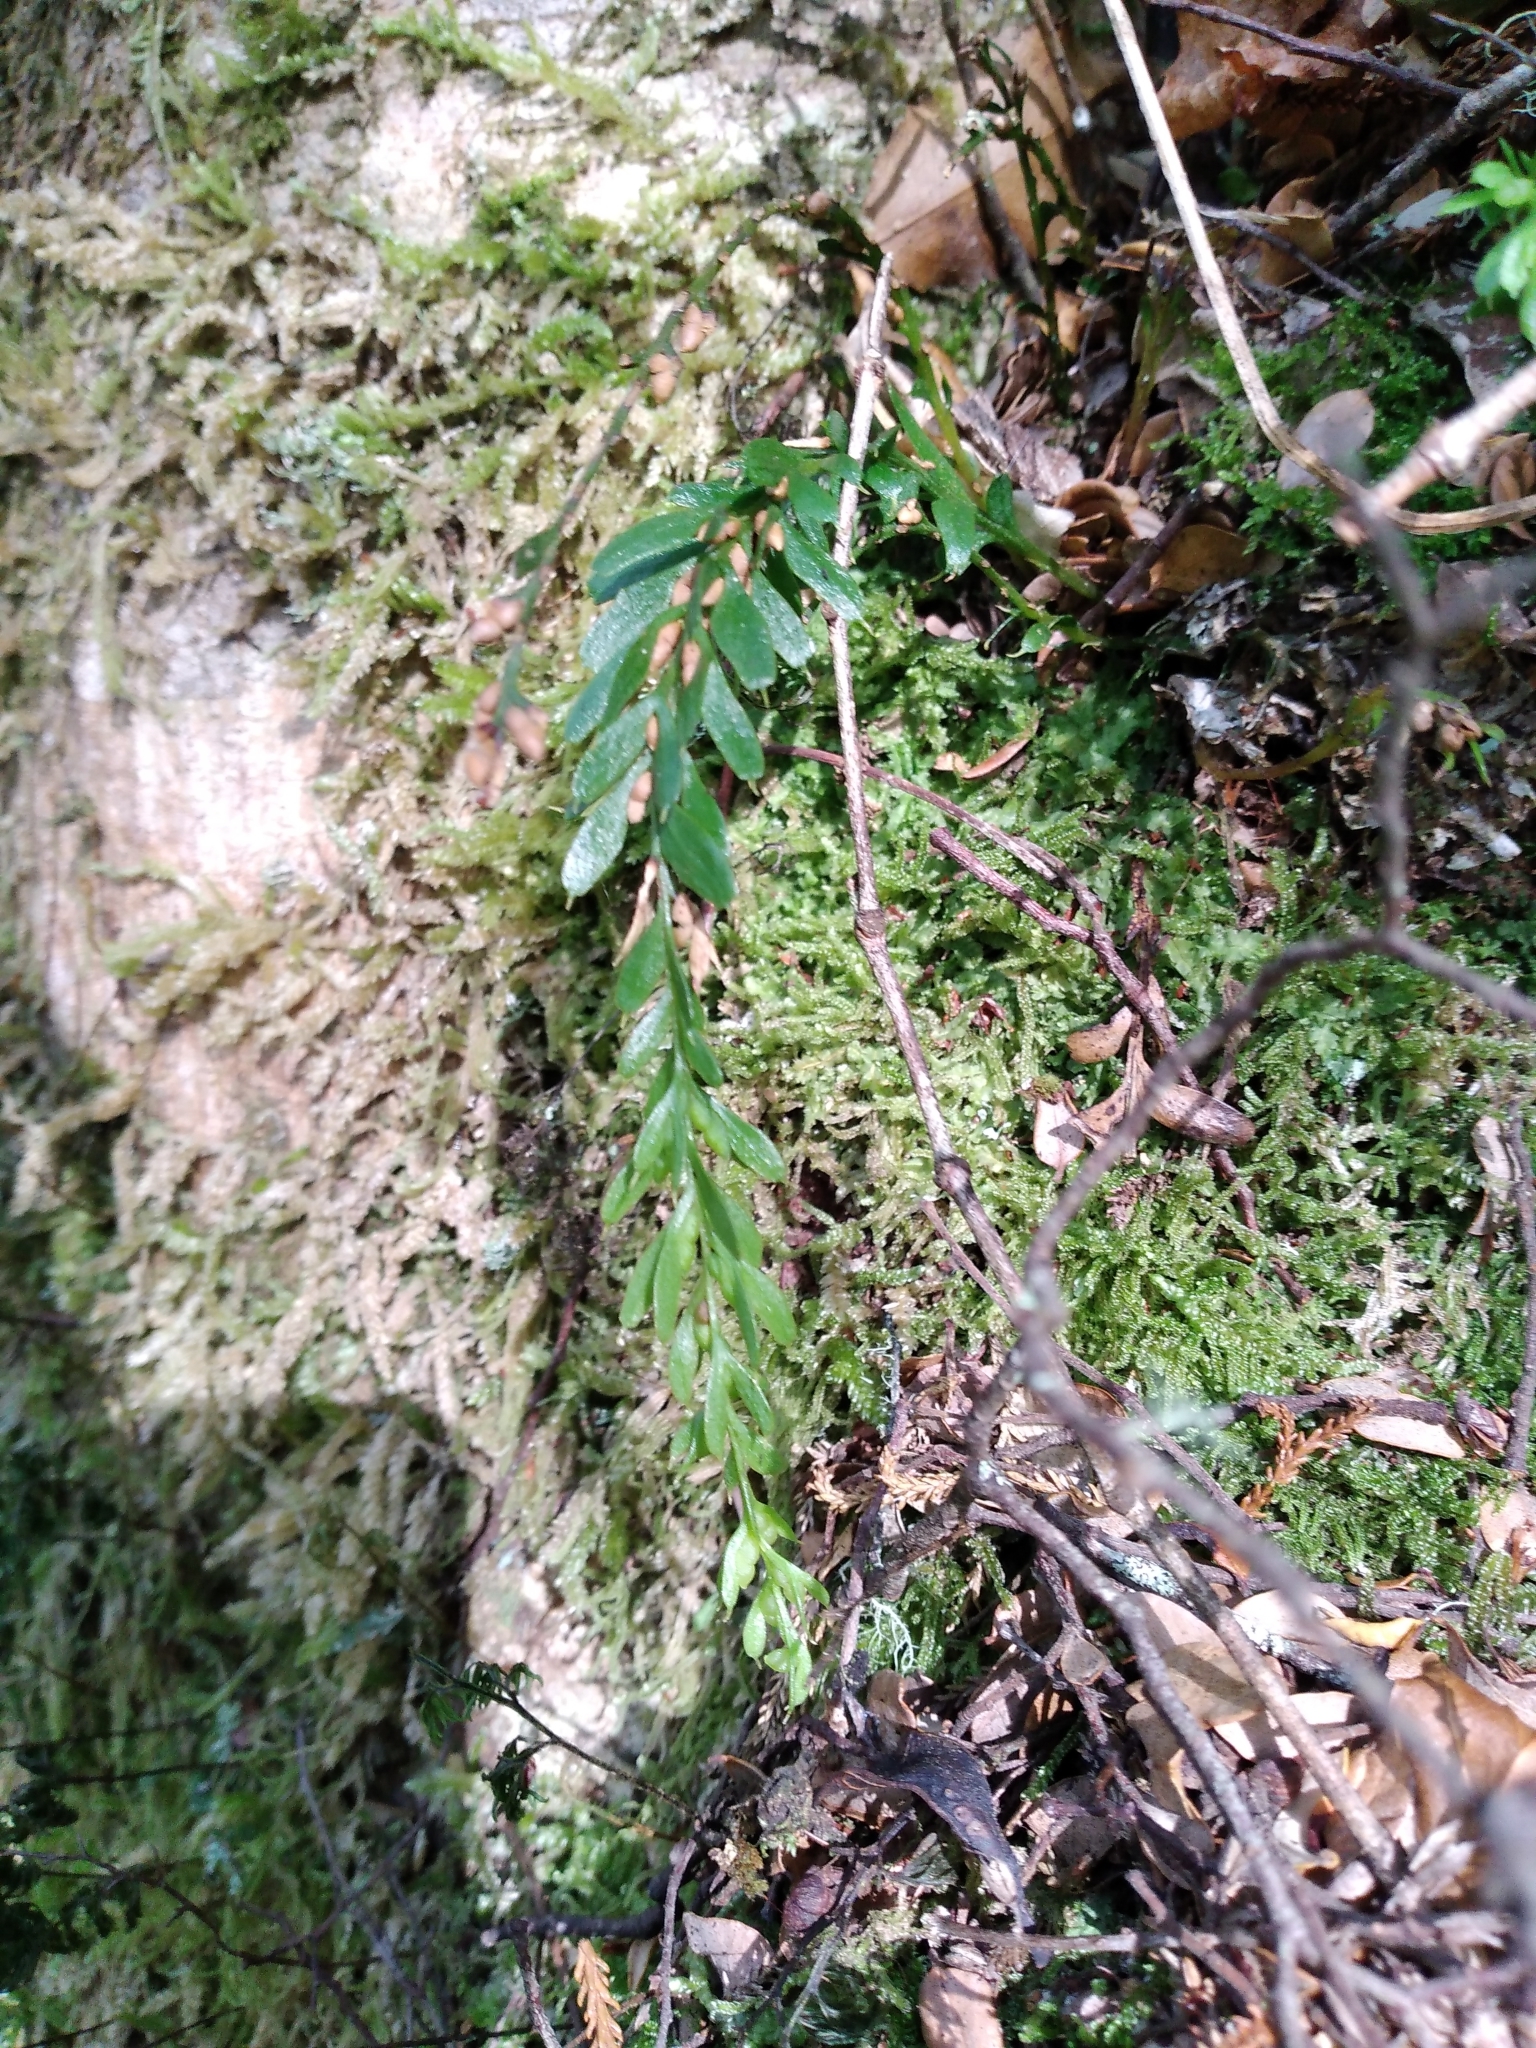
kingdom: Plantae
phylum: Tracheophyta
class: Polypodiopsida
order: Psilotales
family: Psilotaceae
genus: Tmesipteris
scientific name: Tmesipteris tannensis
